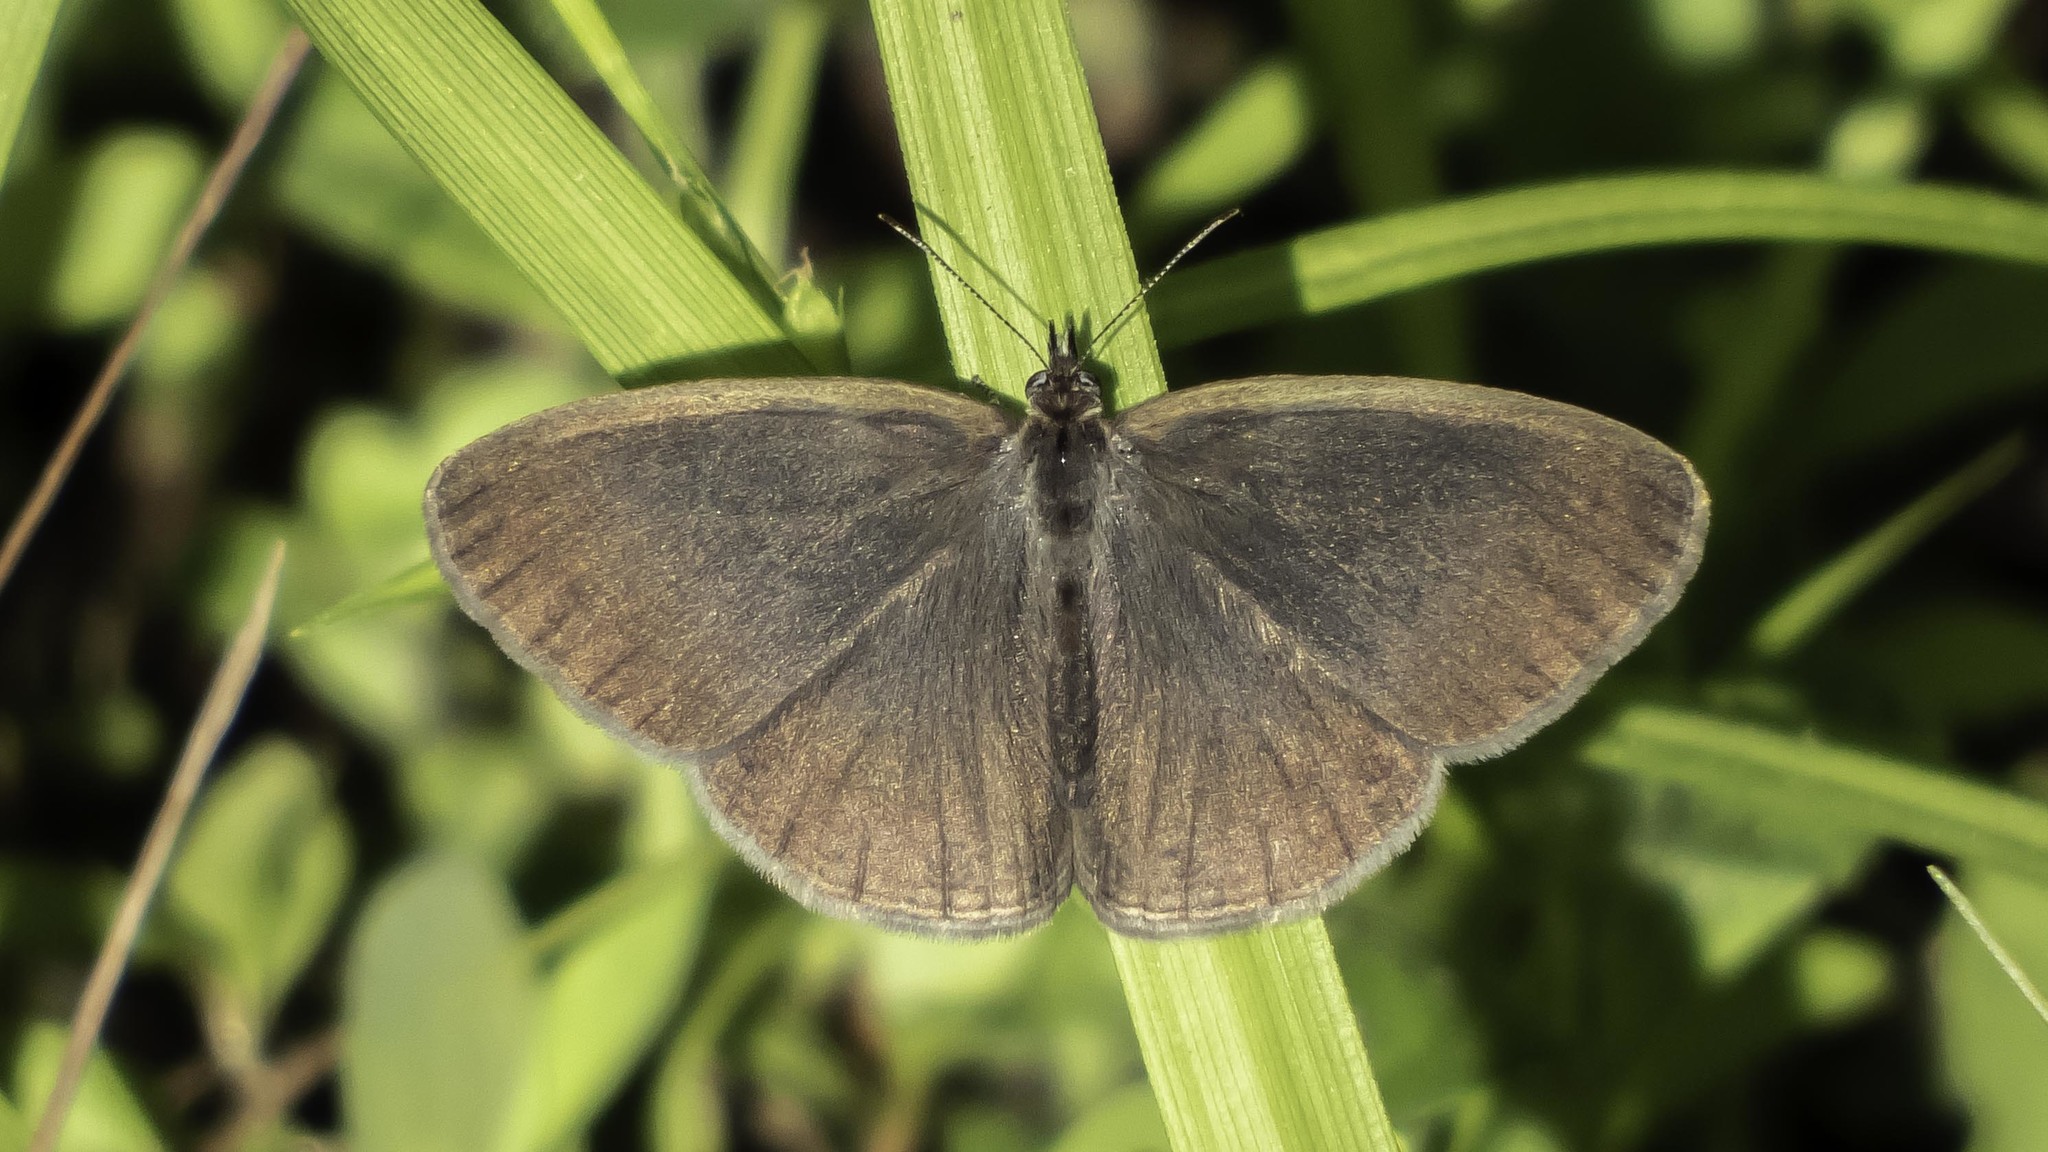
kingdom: Animalia
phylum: Arthropoda
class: Insecta
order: Lepidoptera
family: Nymphalidae
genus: Hermeuptychia
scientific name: Hermeuptychia hermes
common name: Hermes satyr
